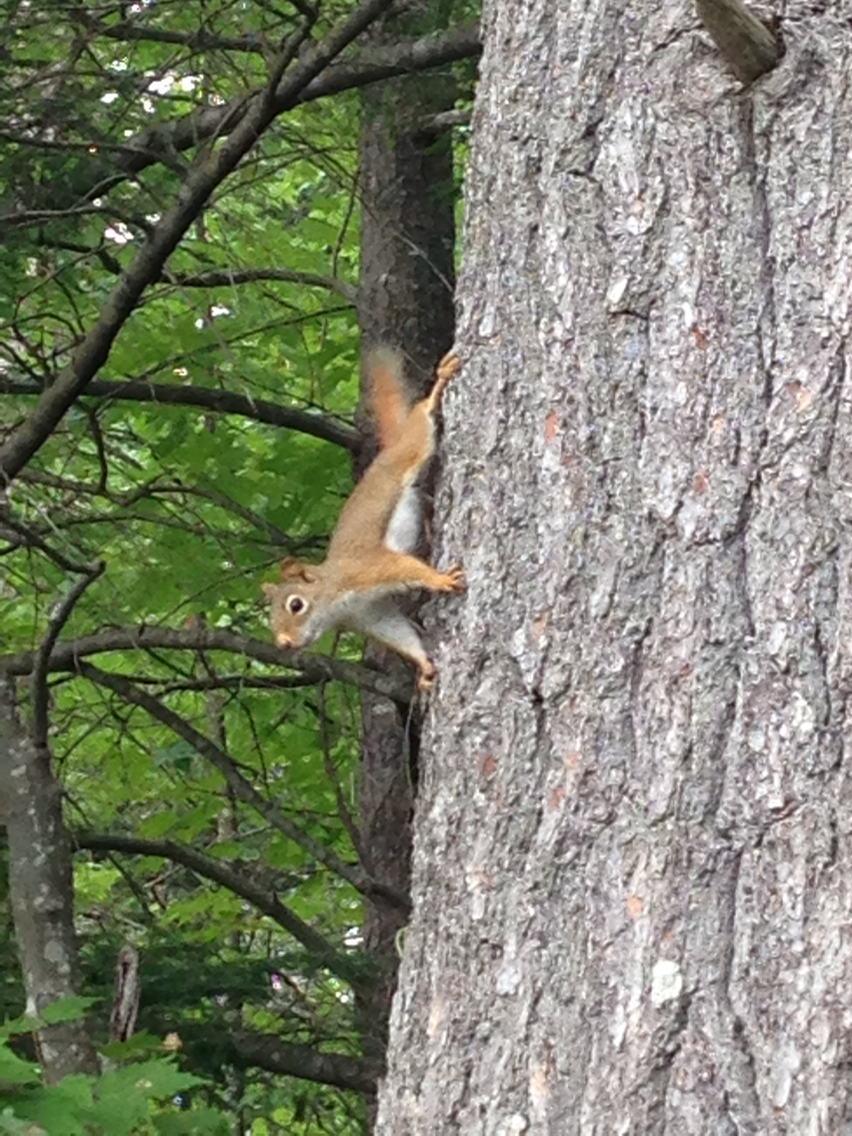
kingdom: Animalia
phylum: Chordata
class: Mammalia
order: Rodentia
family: Sciuridae
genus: Tamiasciurus
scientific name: Tamiasciurus hudsonicus
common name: Red squirrel
